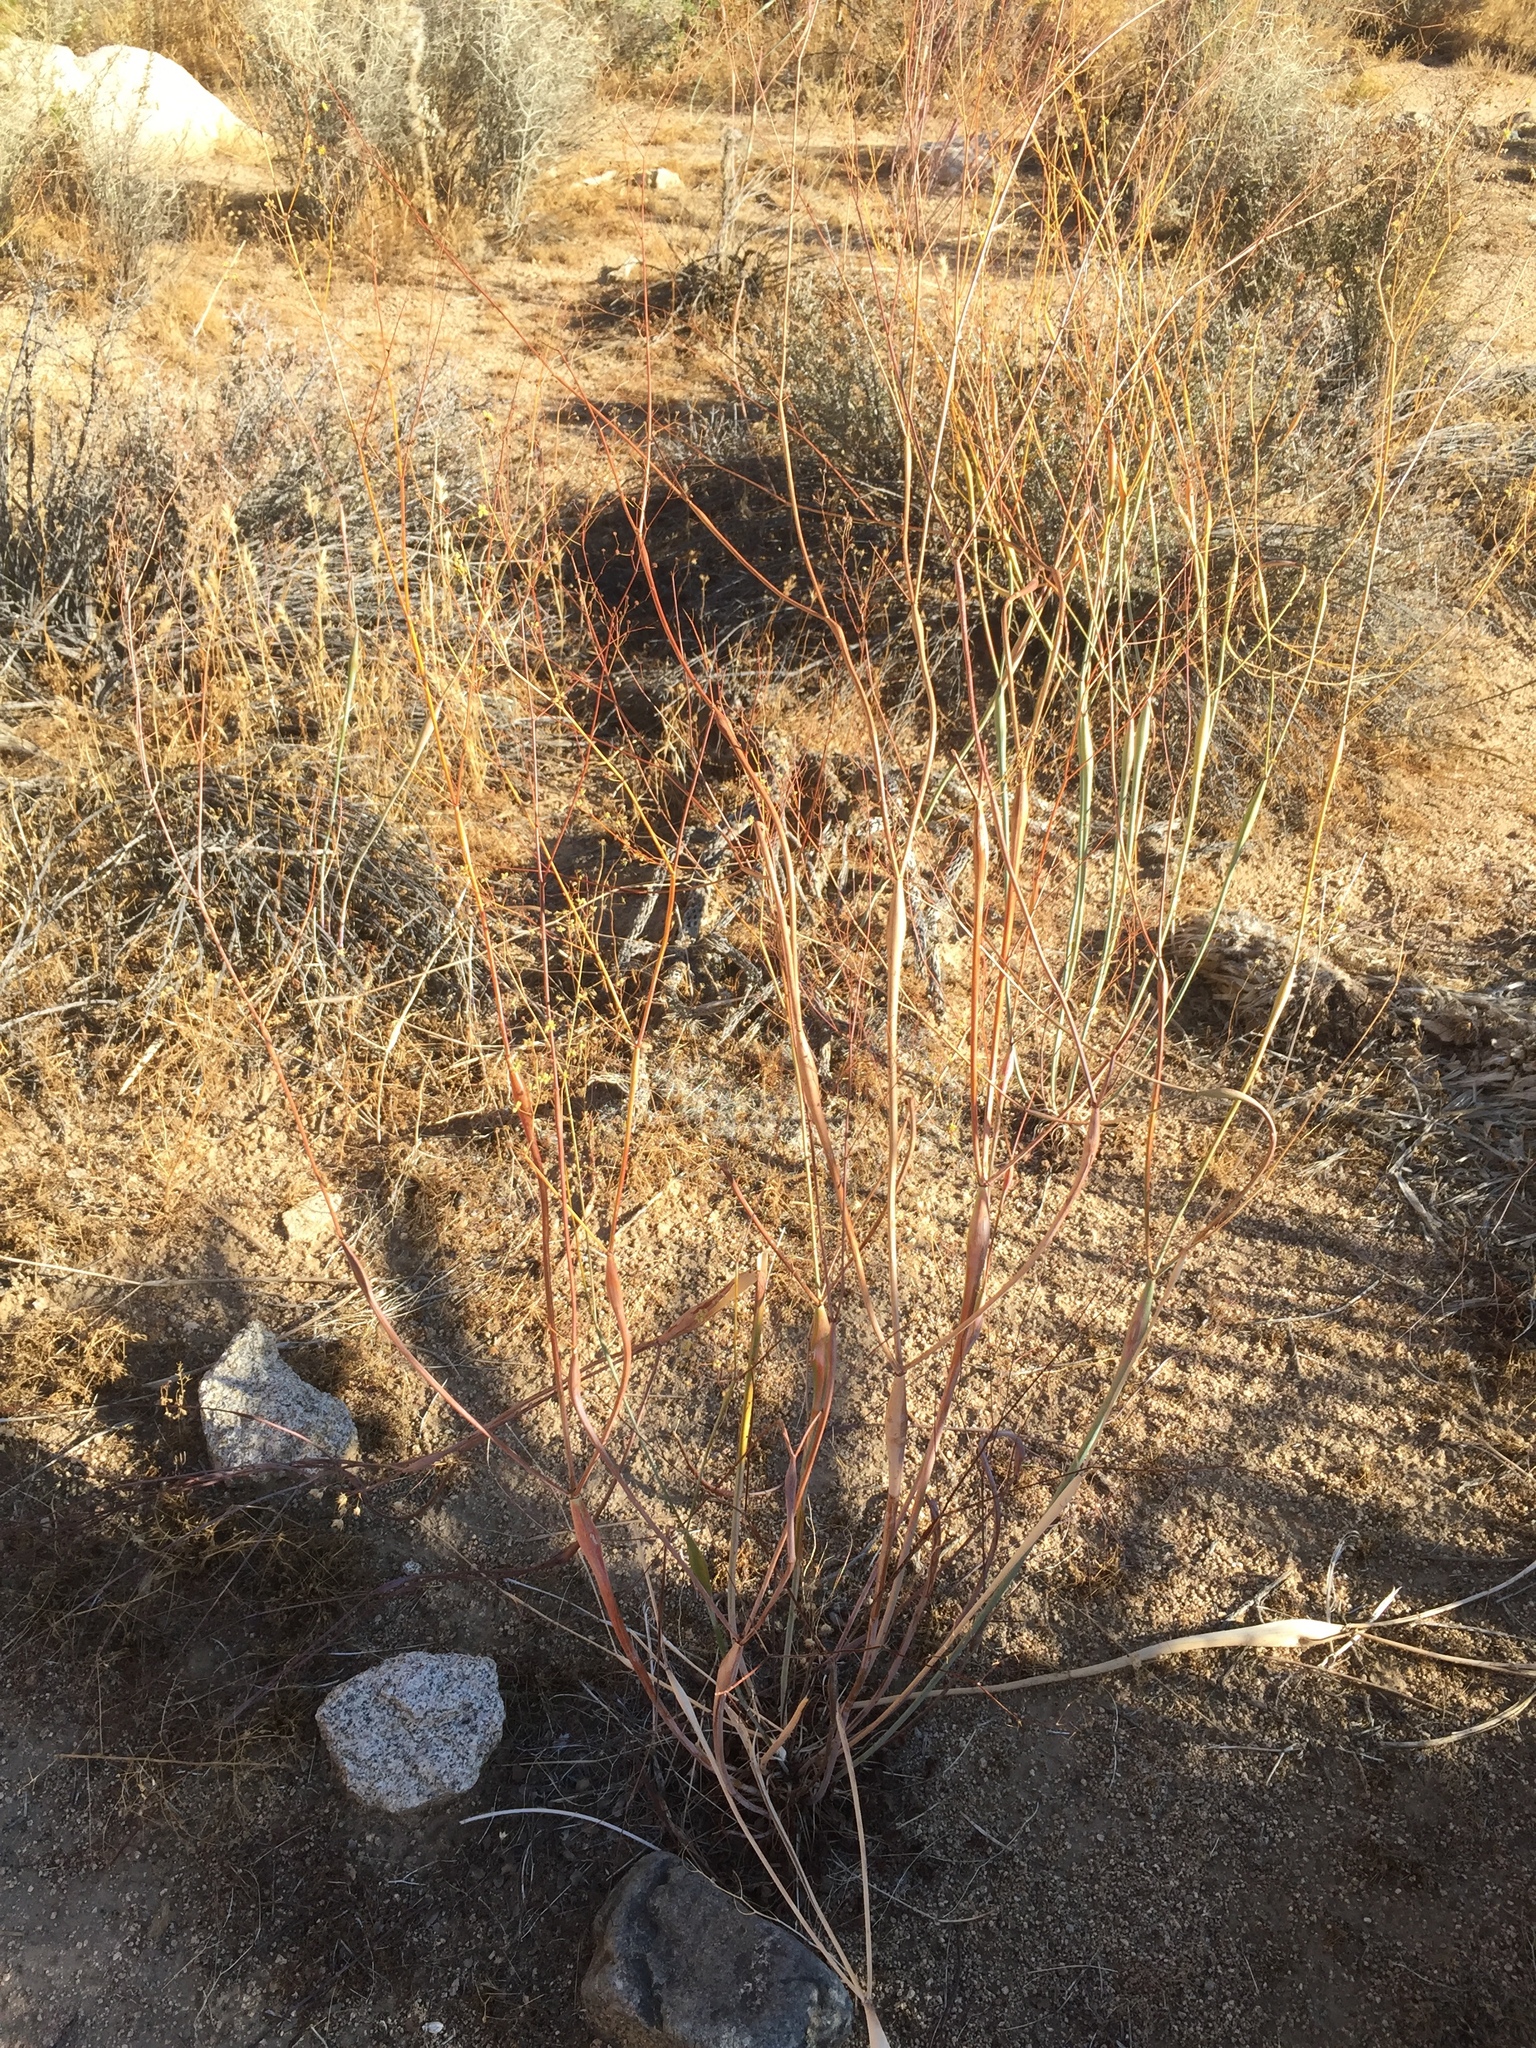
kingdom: Plantae
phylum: Tracheophyta
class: Magnoliopsida
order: Caryophyllales
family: Polygonaceae
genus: Eriogonum
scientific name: Eriogonum inflatum
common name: Desert trumpet
